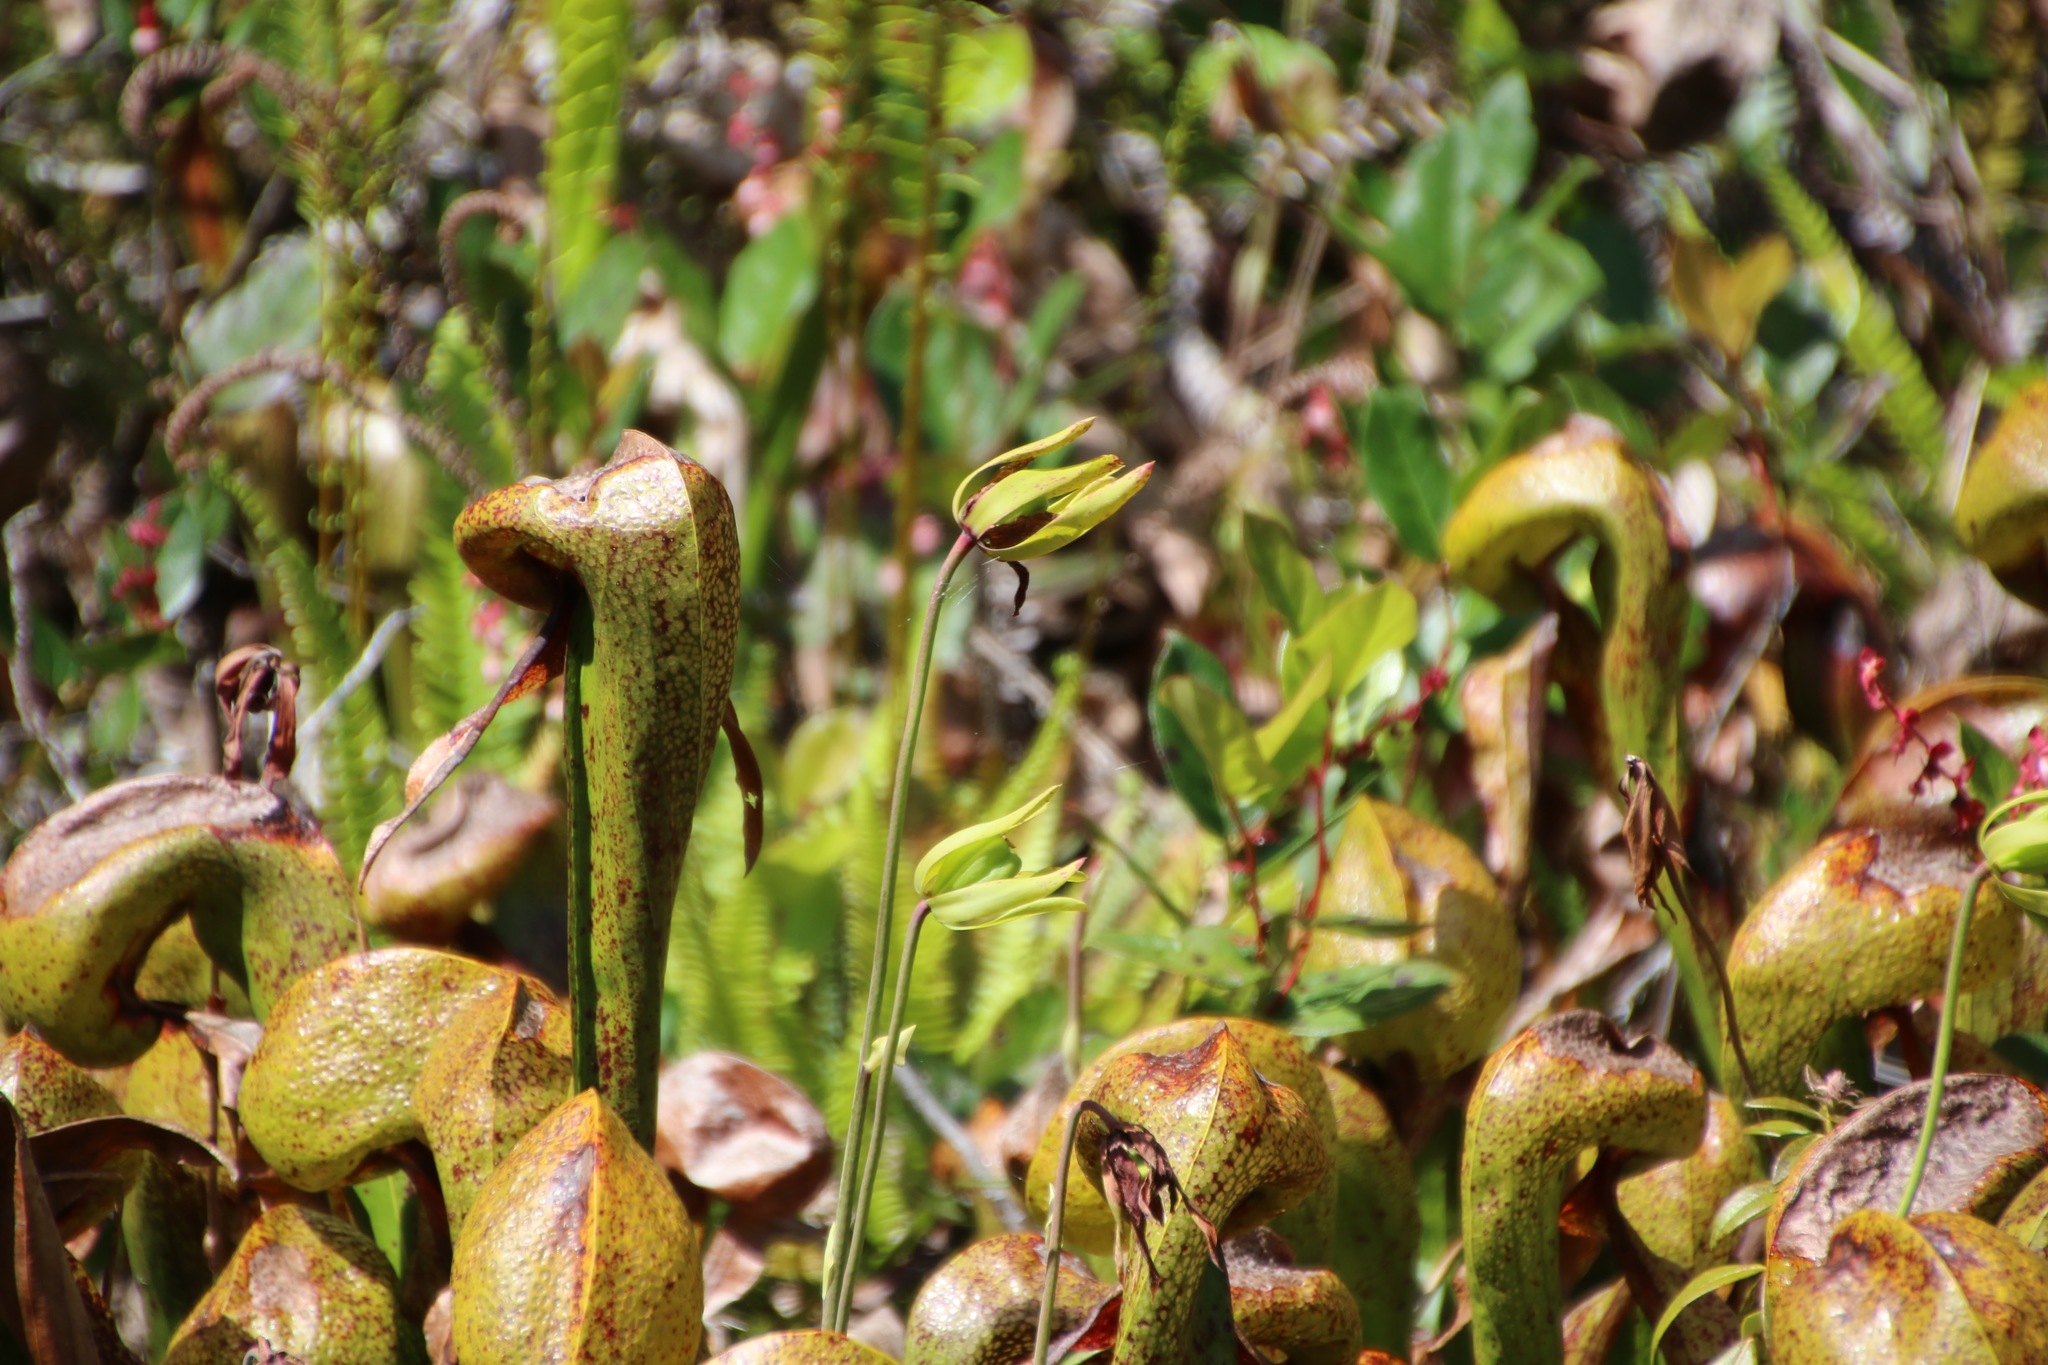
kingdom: Plantae
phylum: Tracheophyta
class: Magnoliopsida
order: Ericales
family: Sarraceniaceae
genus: Darlingtonia
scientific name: Darlingtonia californica
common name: California pitcher plant
